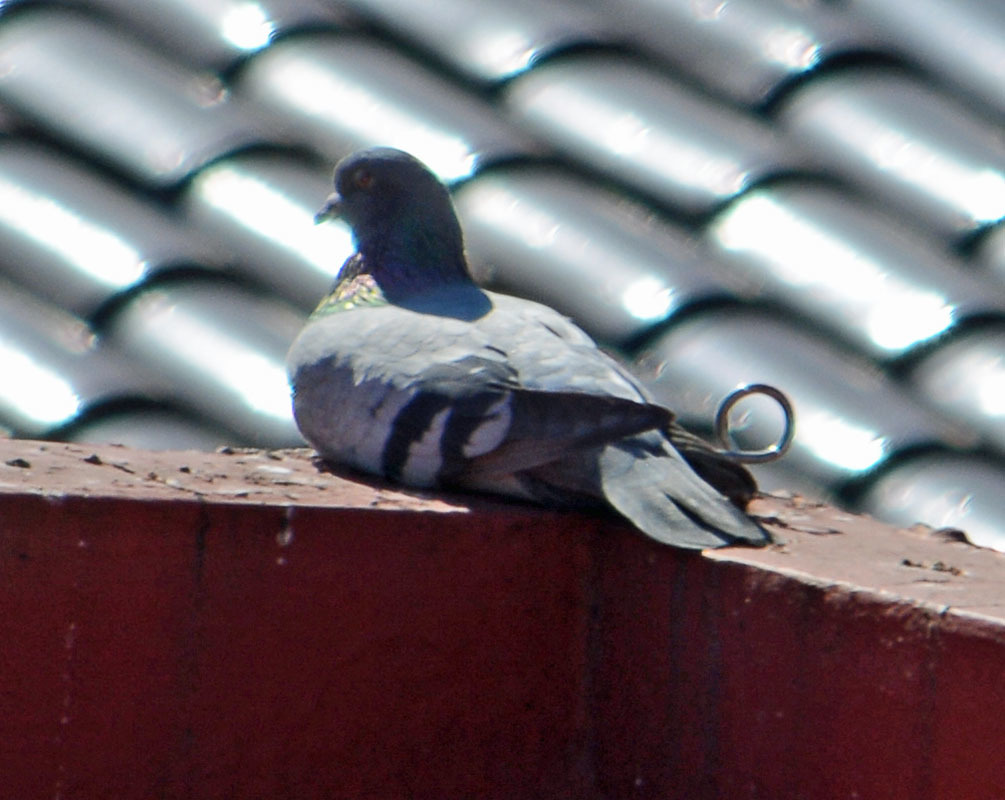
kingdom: Animalia
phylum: Chordata
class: Aves
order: Columbiformes
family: Columbidae
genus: Columba
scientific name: Columba livia
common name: Rock pigeon
